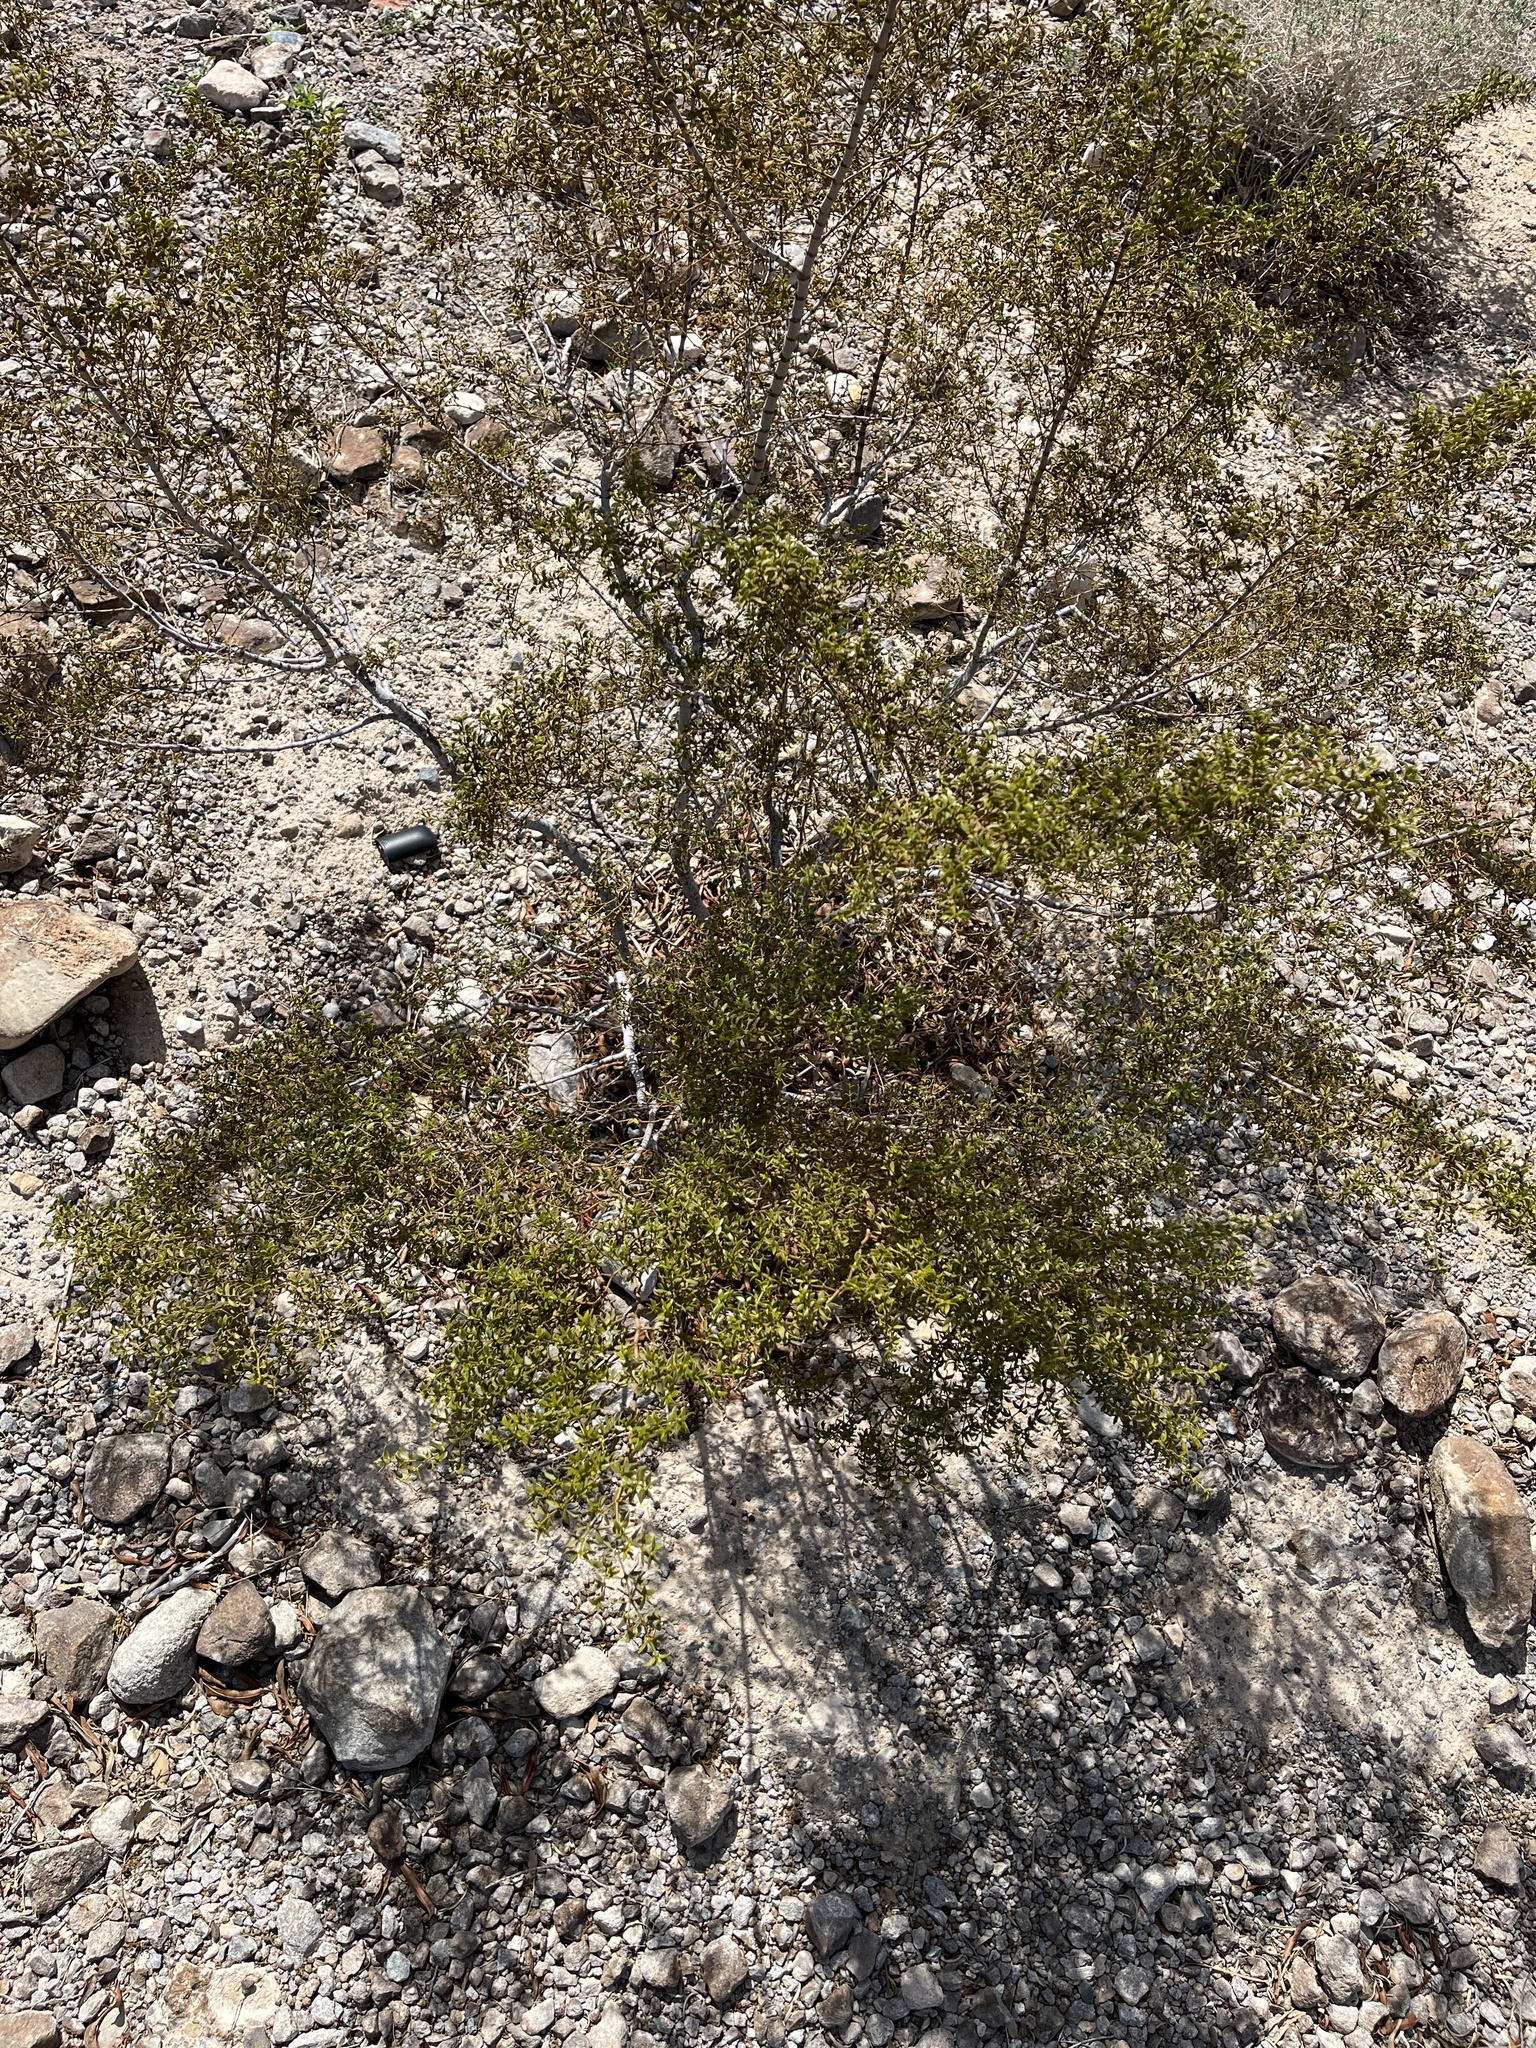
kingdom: Plantae
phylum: Tracheophyta
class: Magnoliopsida
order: Zygophyllales
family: Zygophyllaceae
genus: Larrea
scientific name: Larrea tridentata
